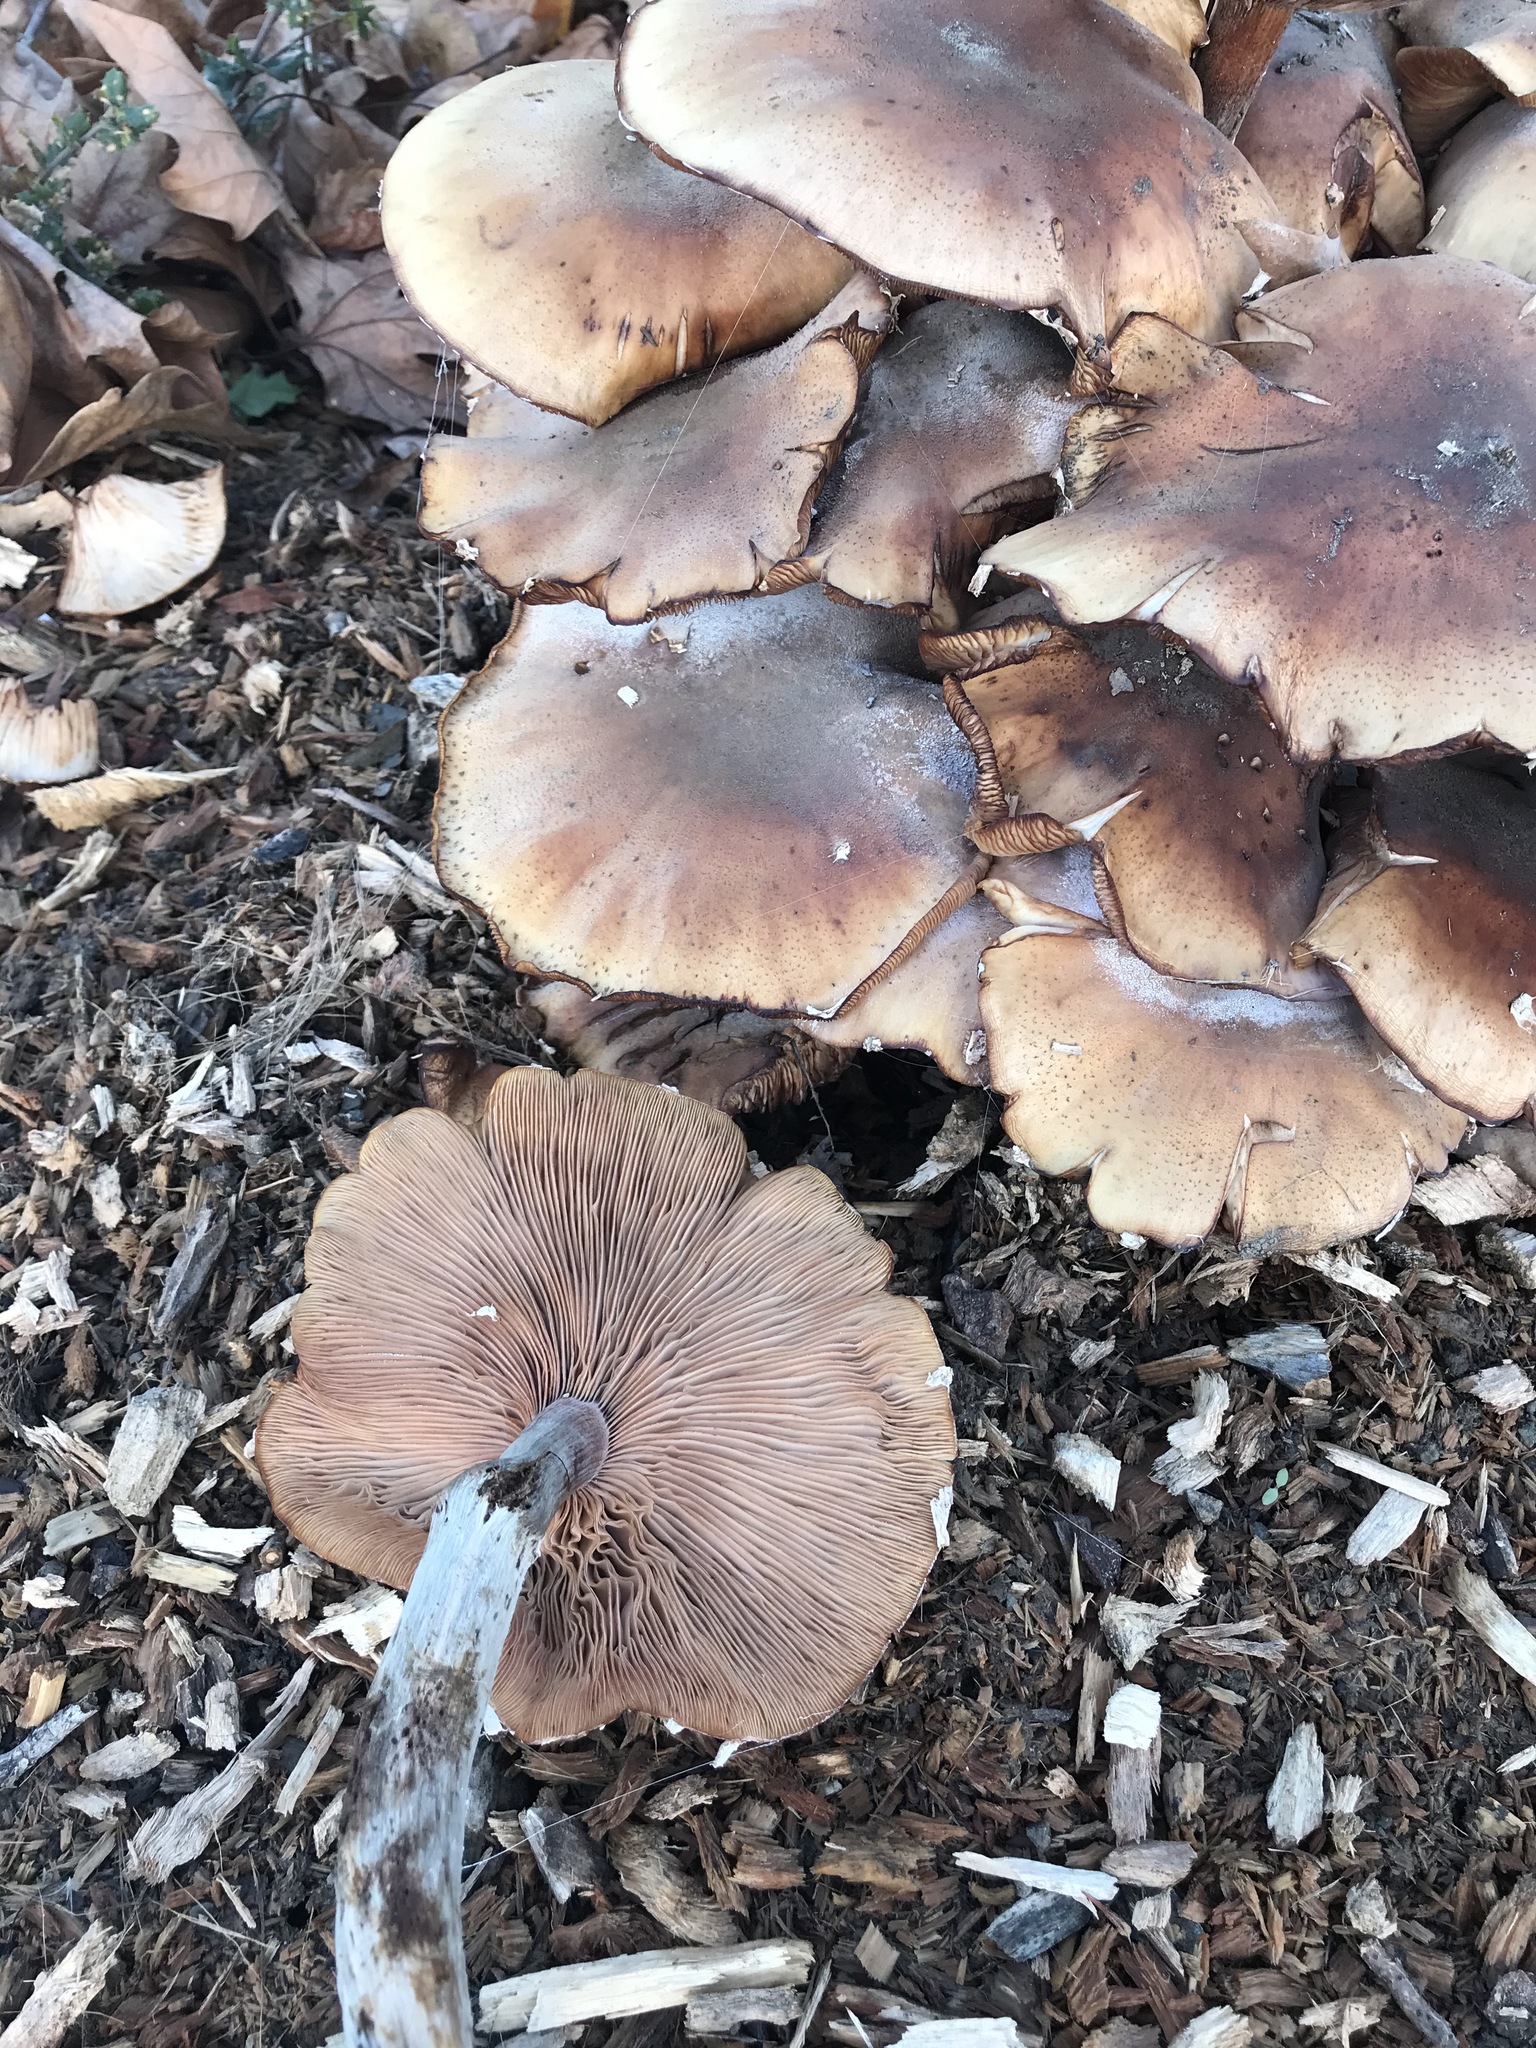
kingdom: Fungi
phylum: Basidiomycota
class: Agaricomycetes
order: Agaricales
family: Physalacriaceae
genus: Armillaria
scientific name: Armillaria mellea
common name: Honey fungus
